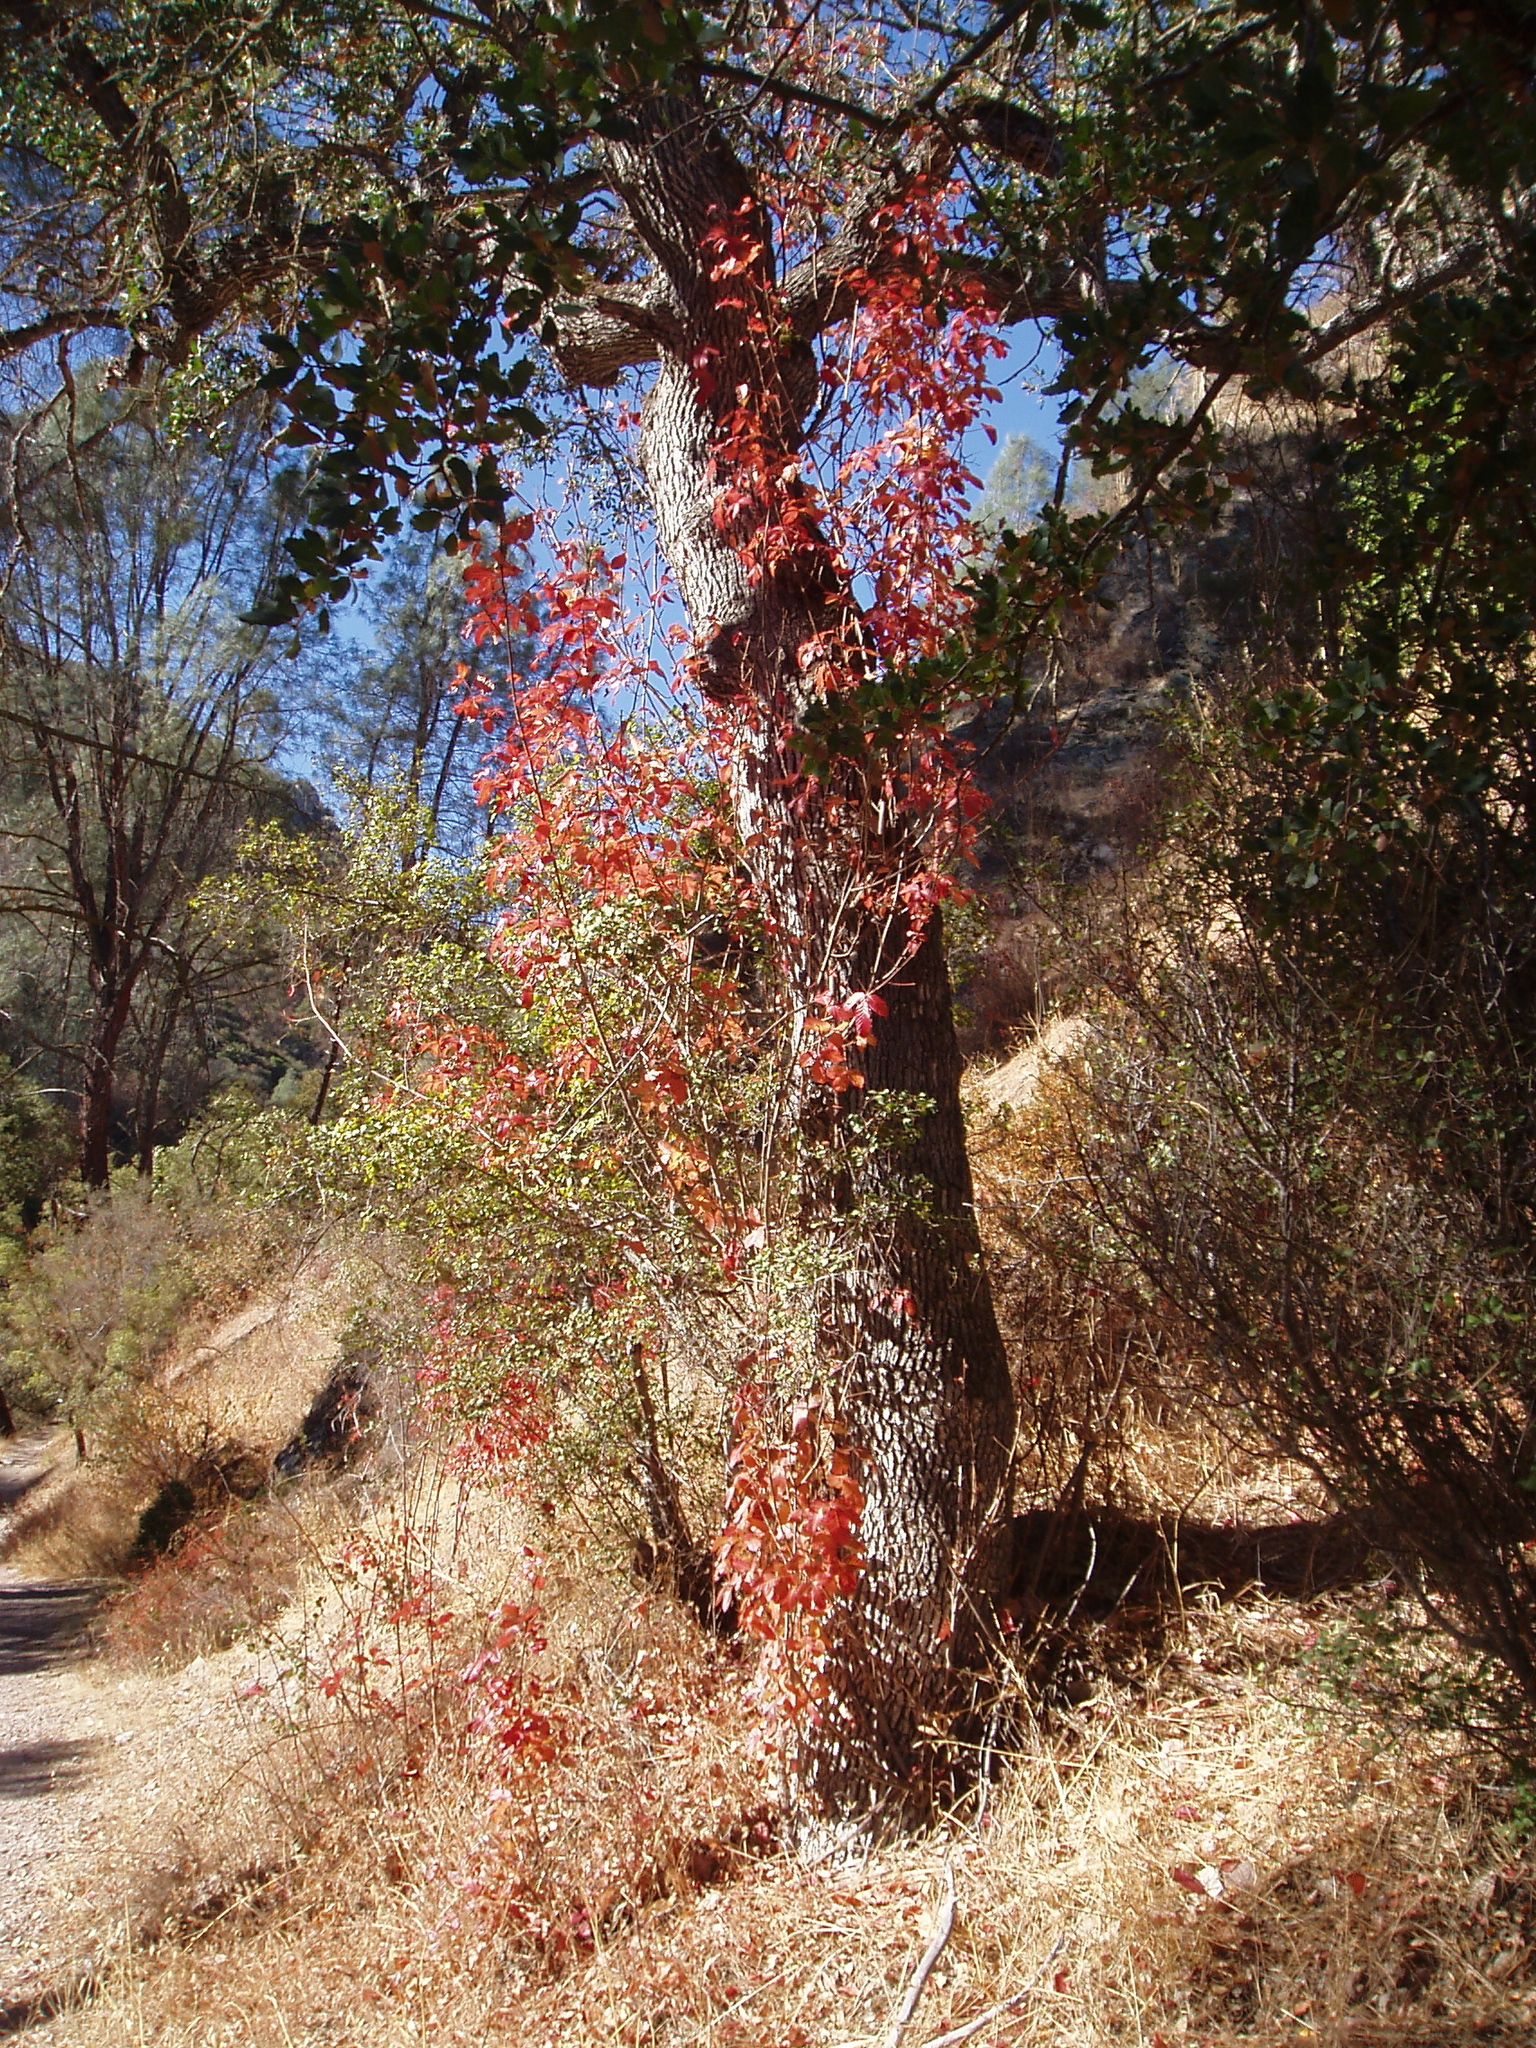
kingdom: Plantae
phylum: Tracheophyta
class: Magnoliopsida
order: Sapindales
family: Anacardiaceae
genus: Toxicodendron
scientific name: Toxicodendron diversilobum
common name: Pacific poison-oak
